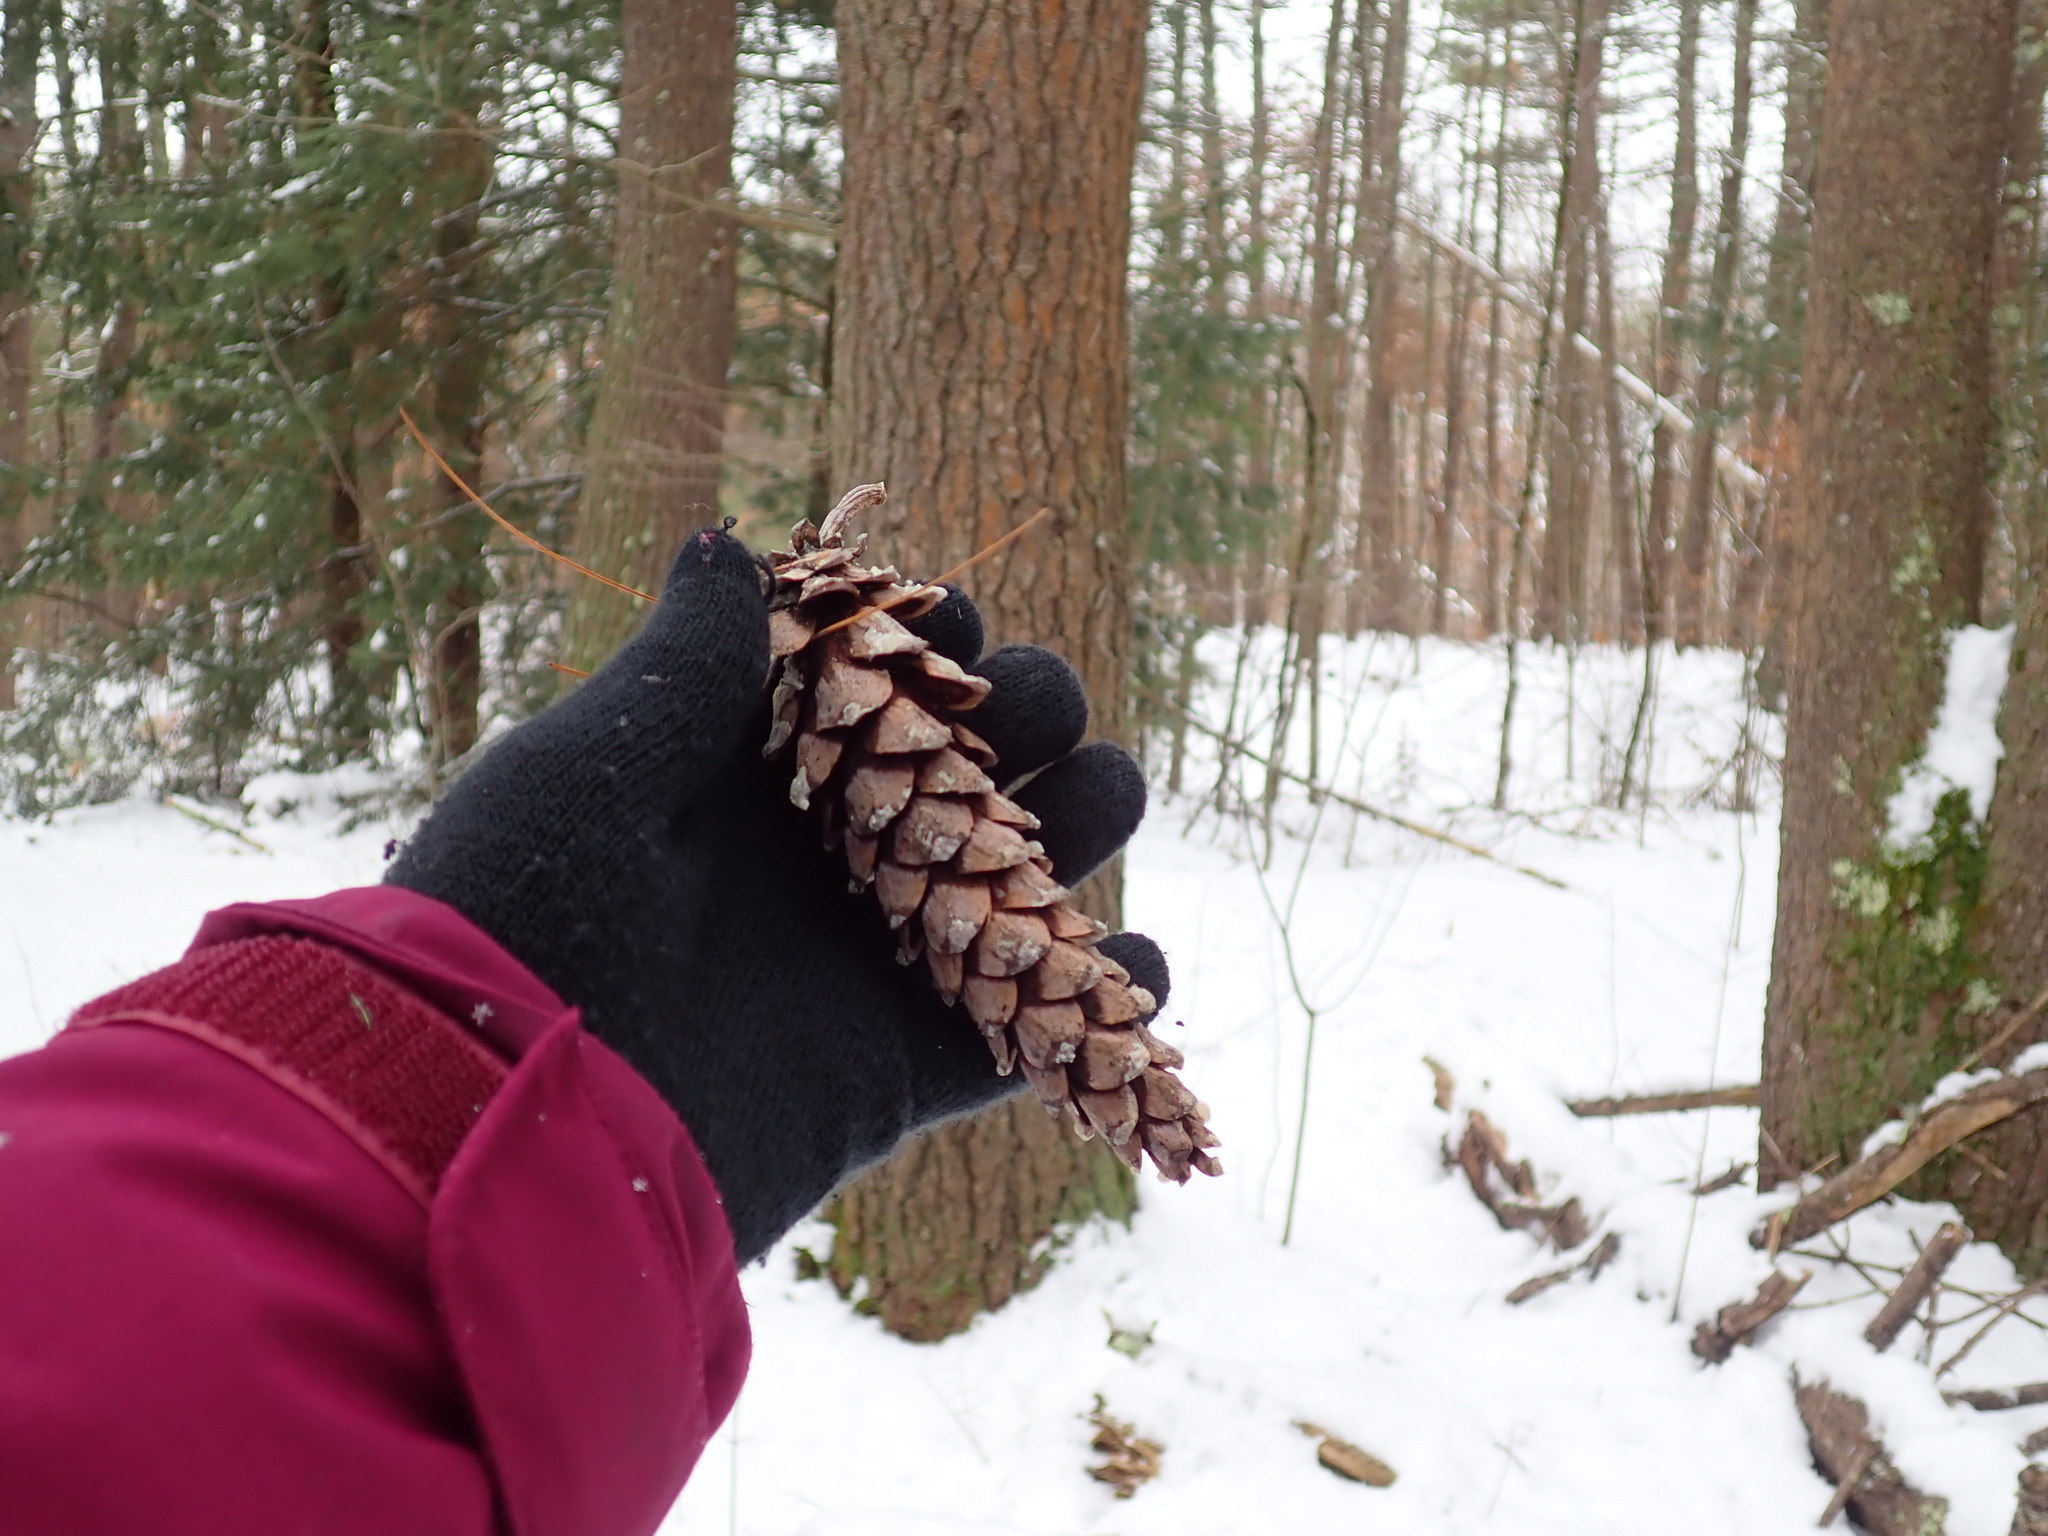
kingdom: Plantae
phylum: Tracheophyta
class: Pinopsida
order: Pinales
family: Pinaceae
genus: Pinus
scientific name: Pinus strobus
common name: Weymouth pine
